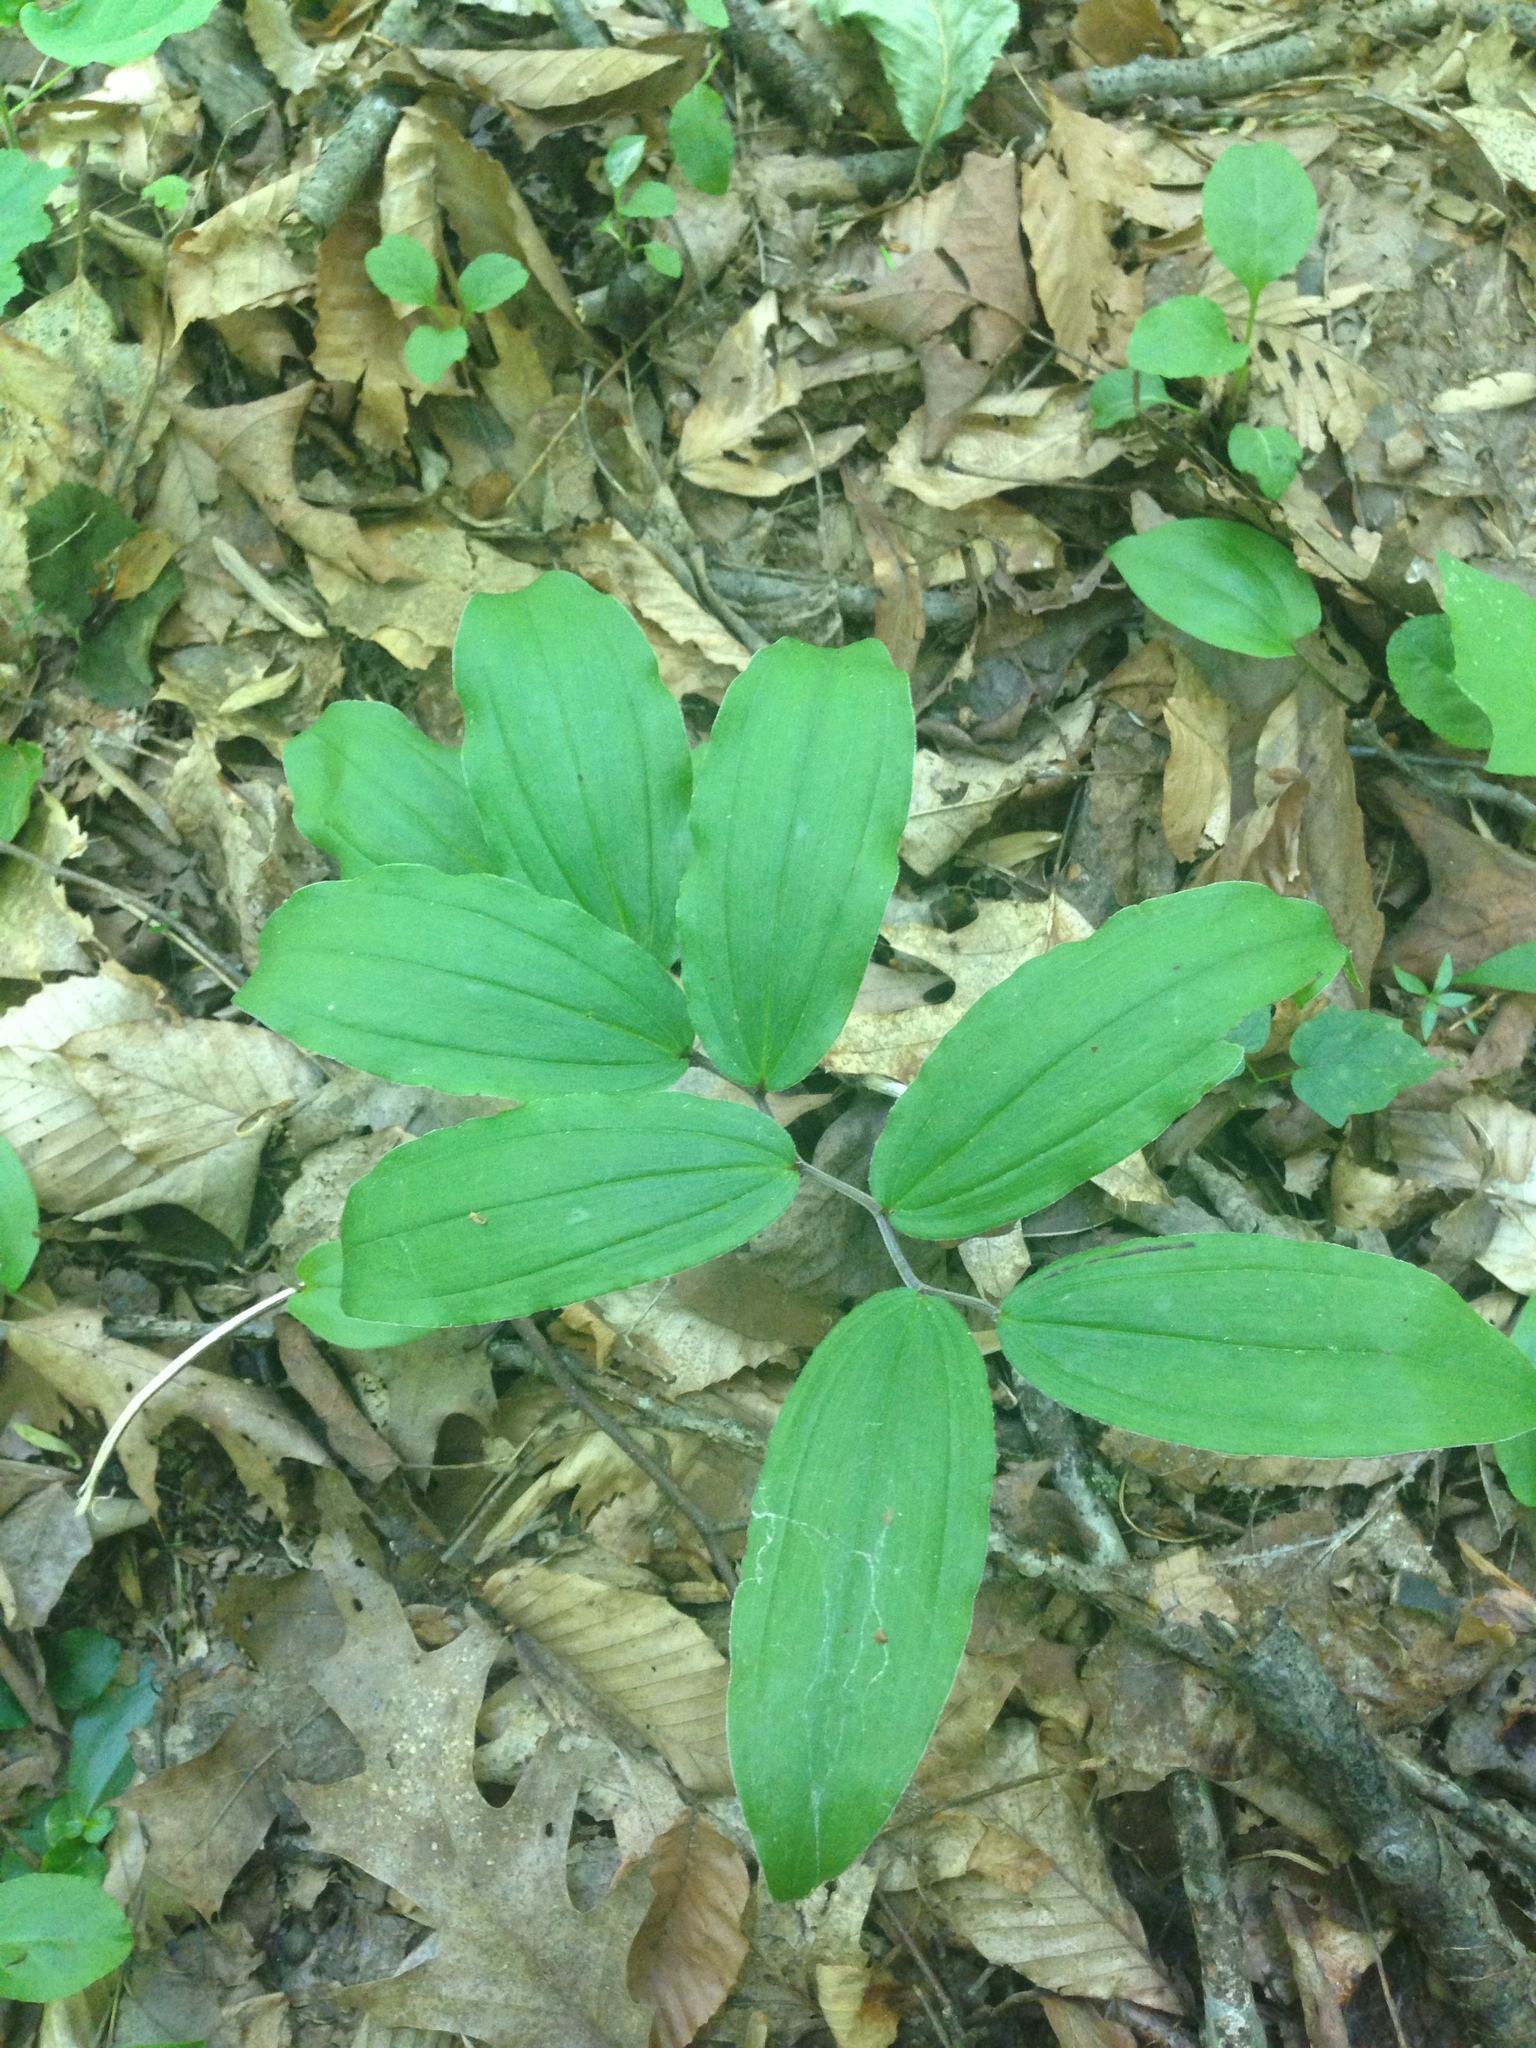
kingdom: Plantae
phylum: Tracheophyta
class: Liliopsida
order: Asparagales
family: Asparagaceae
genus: Maianthemum
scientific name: Maianthemum racemosum
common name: False spikenard
